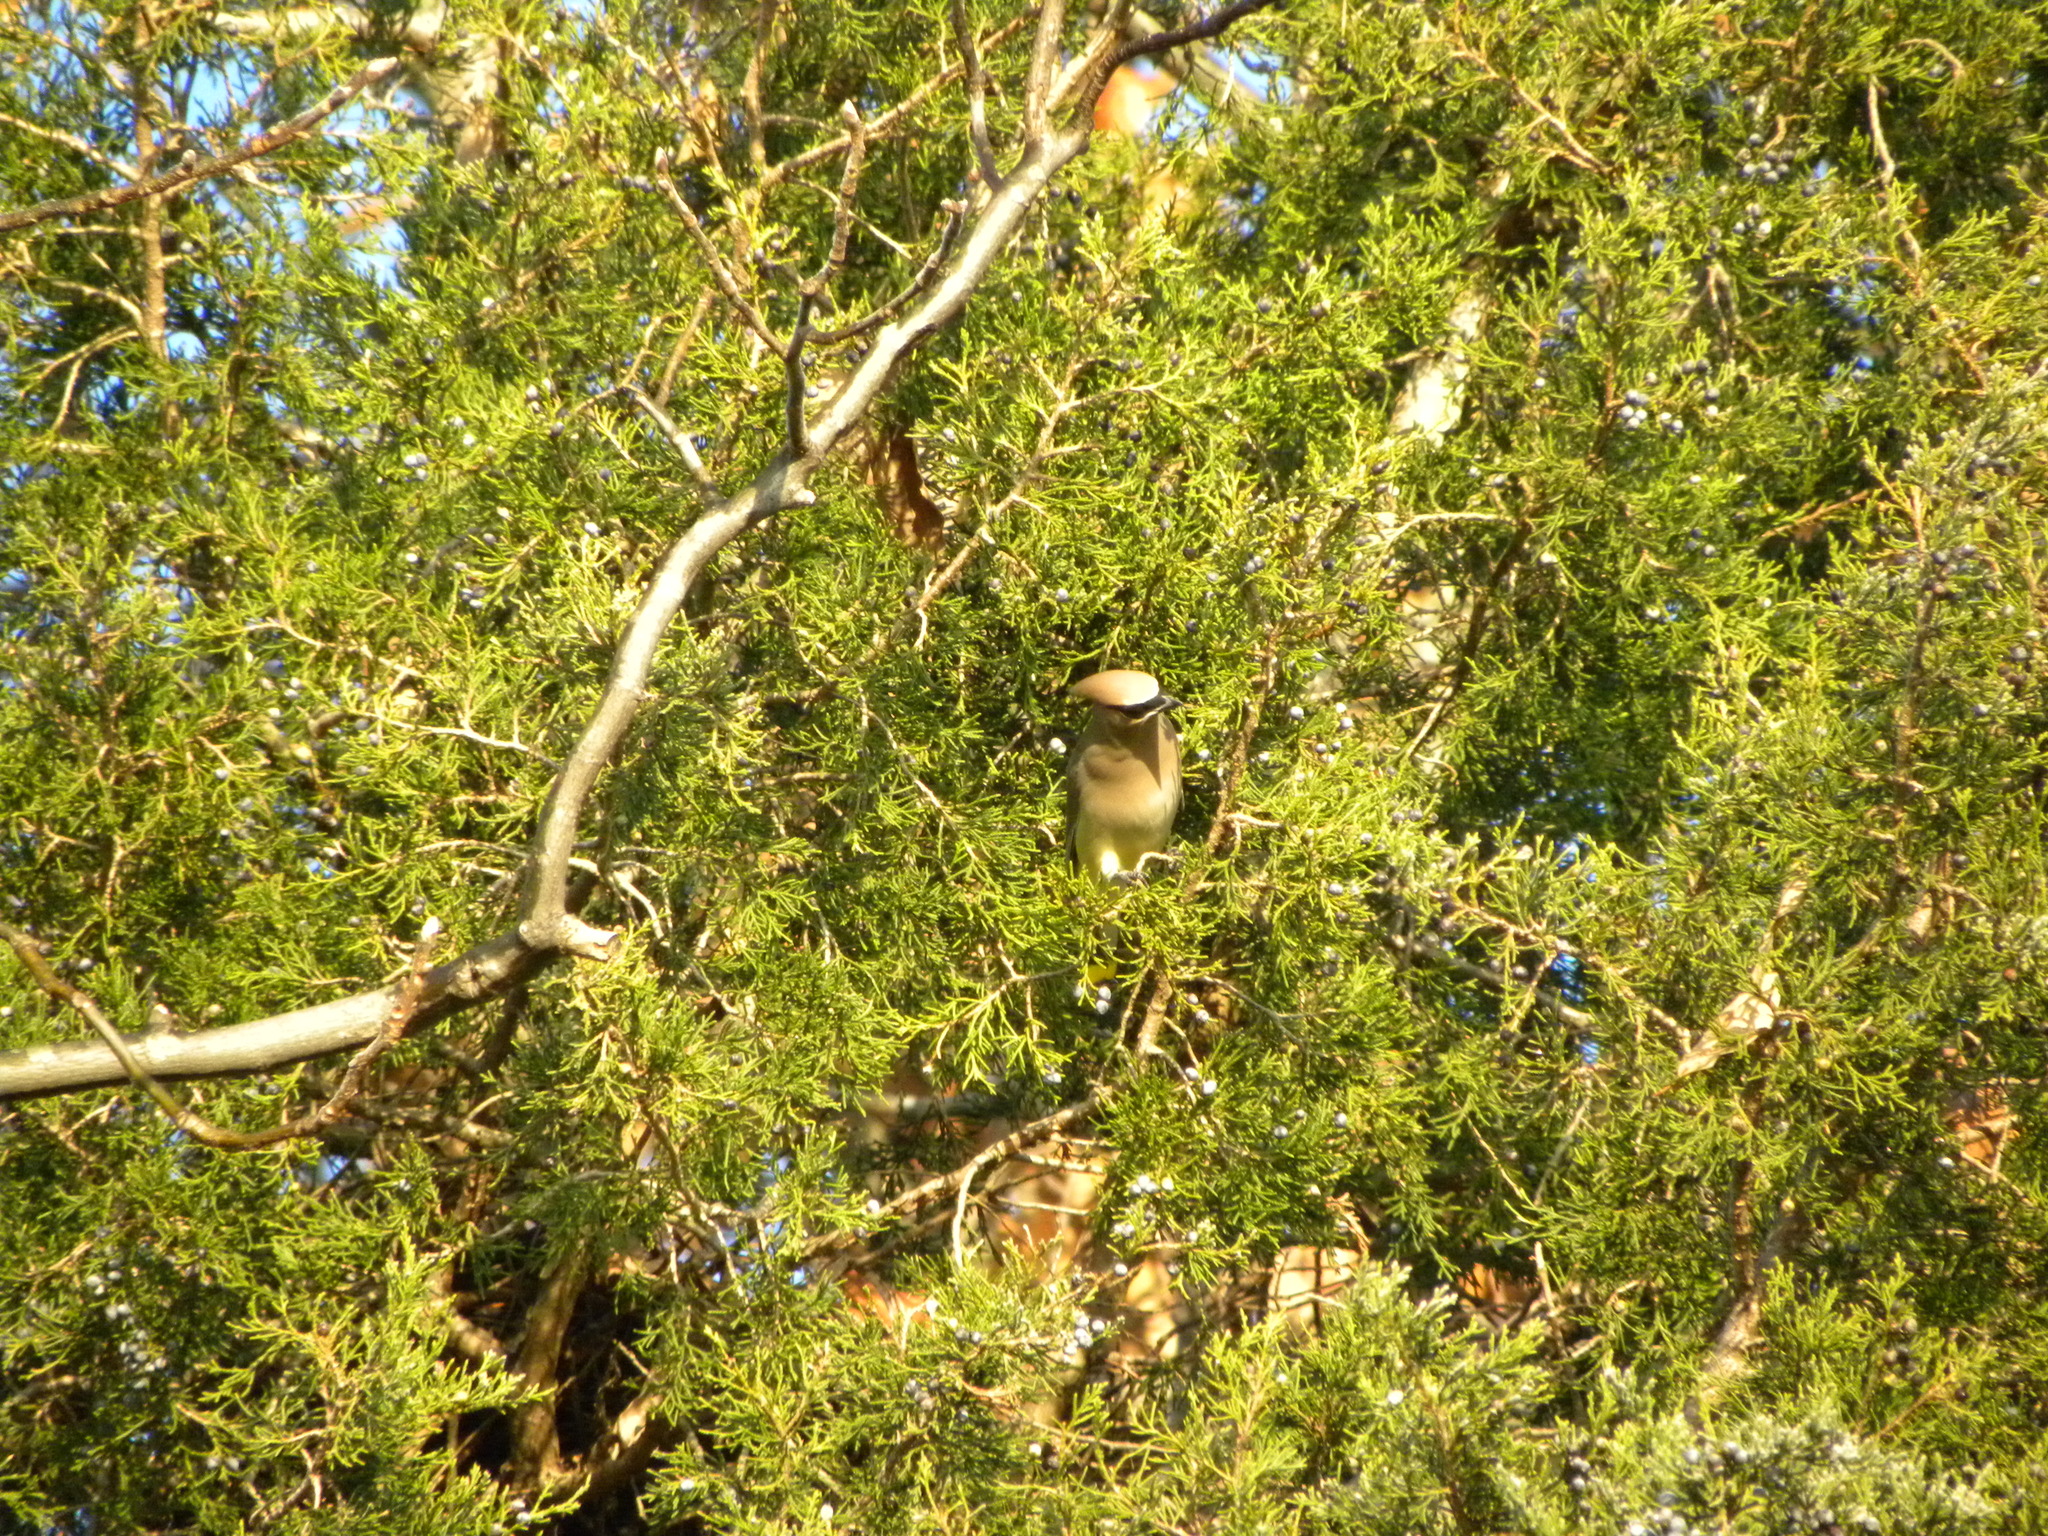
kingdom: Animalia
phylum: Chordata
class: Aves
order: Passeriformes
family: Bombycillidae
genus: Bombycilla
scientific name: Bombycilla cedrorum
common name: Cedar waxwing
